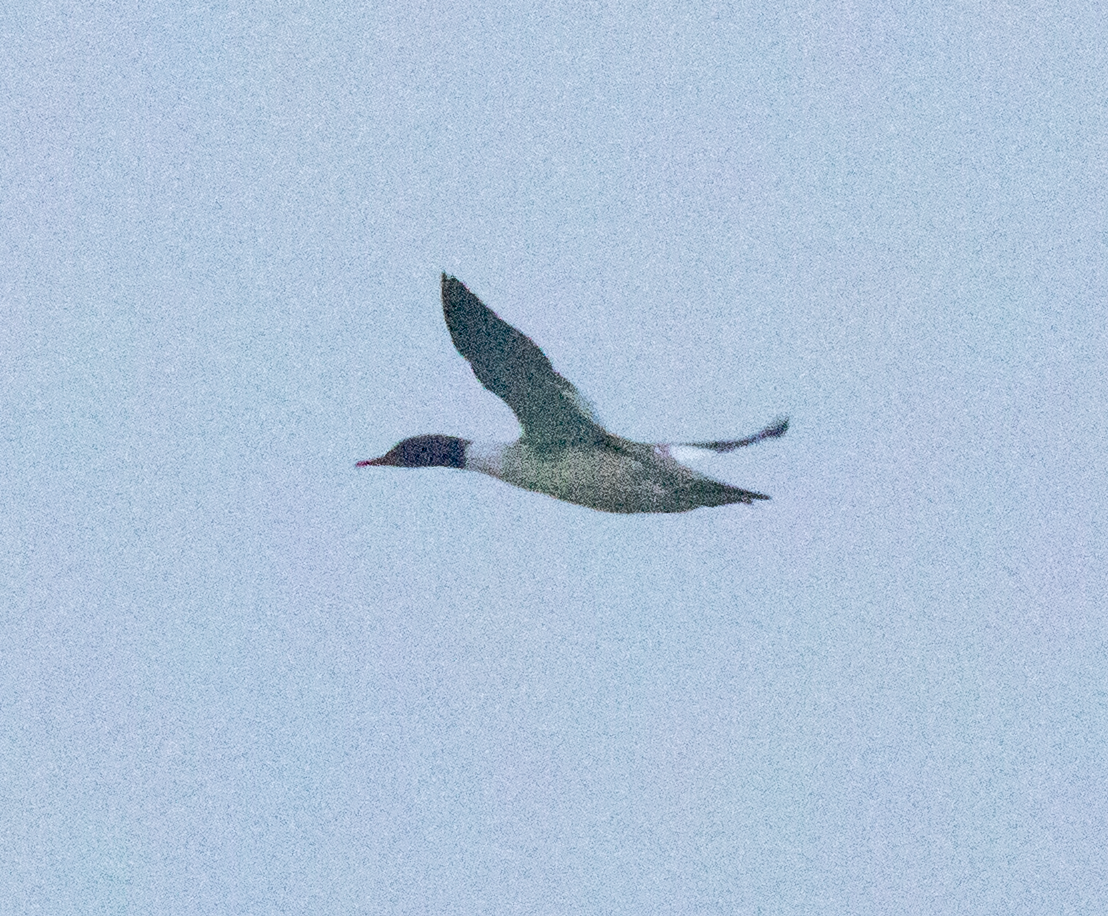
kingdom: Animalia
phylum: Chordata
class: Aves
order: Anseriformes
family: Anatidae
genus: Mergus
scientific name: Mergus merganser
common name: Common merganser
